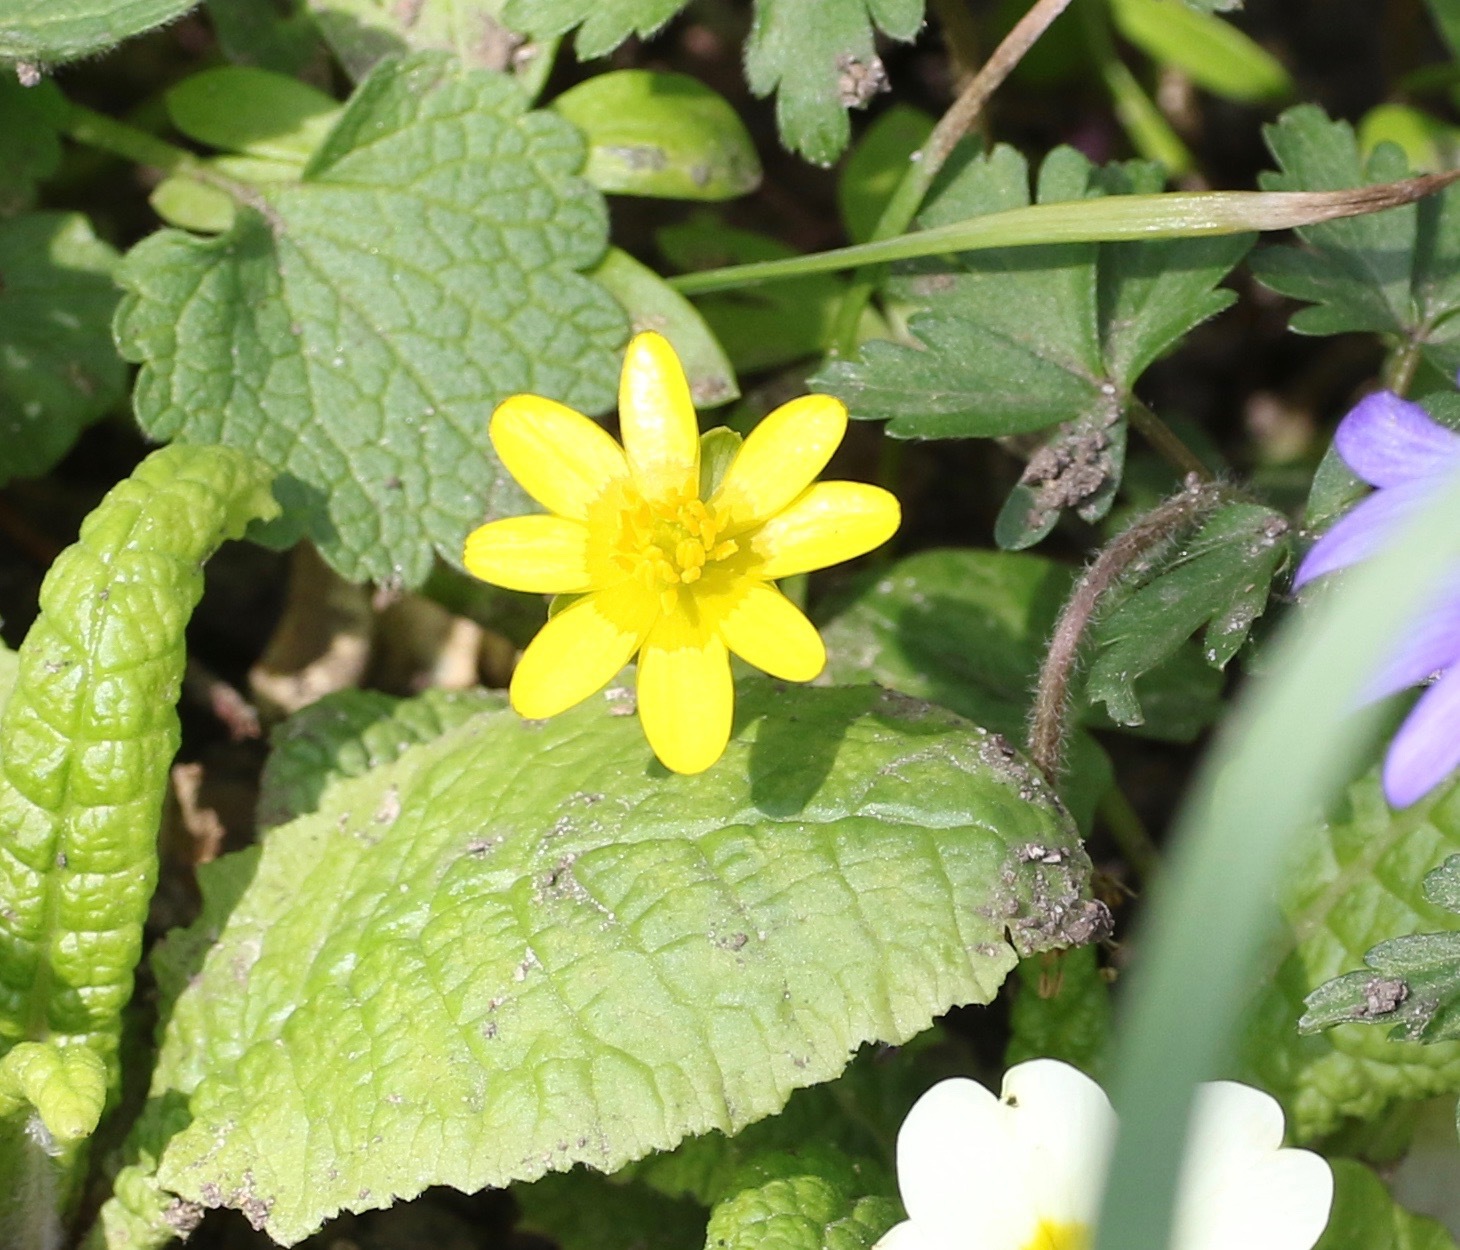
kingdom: Plantae
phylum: Tracheophyta
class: Magnoliopsida
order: Ranunculales
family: Ranunculaceae
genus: Ficaria
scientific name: Ficaria verna
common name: Lesser celandine
